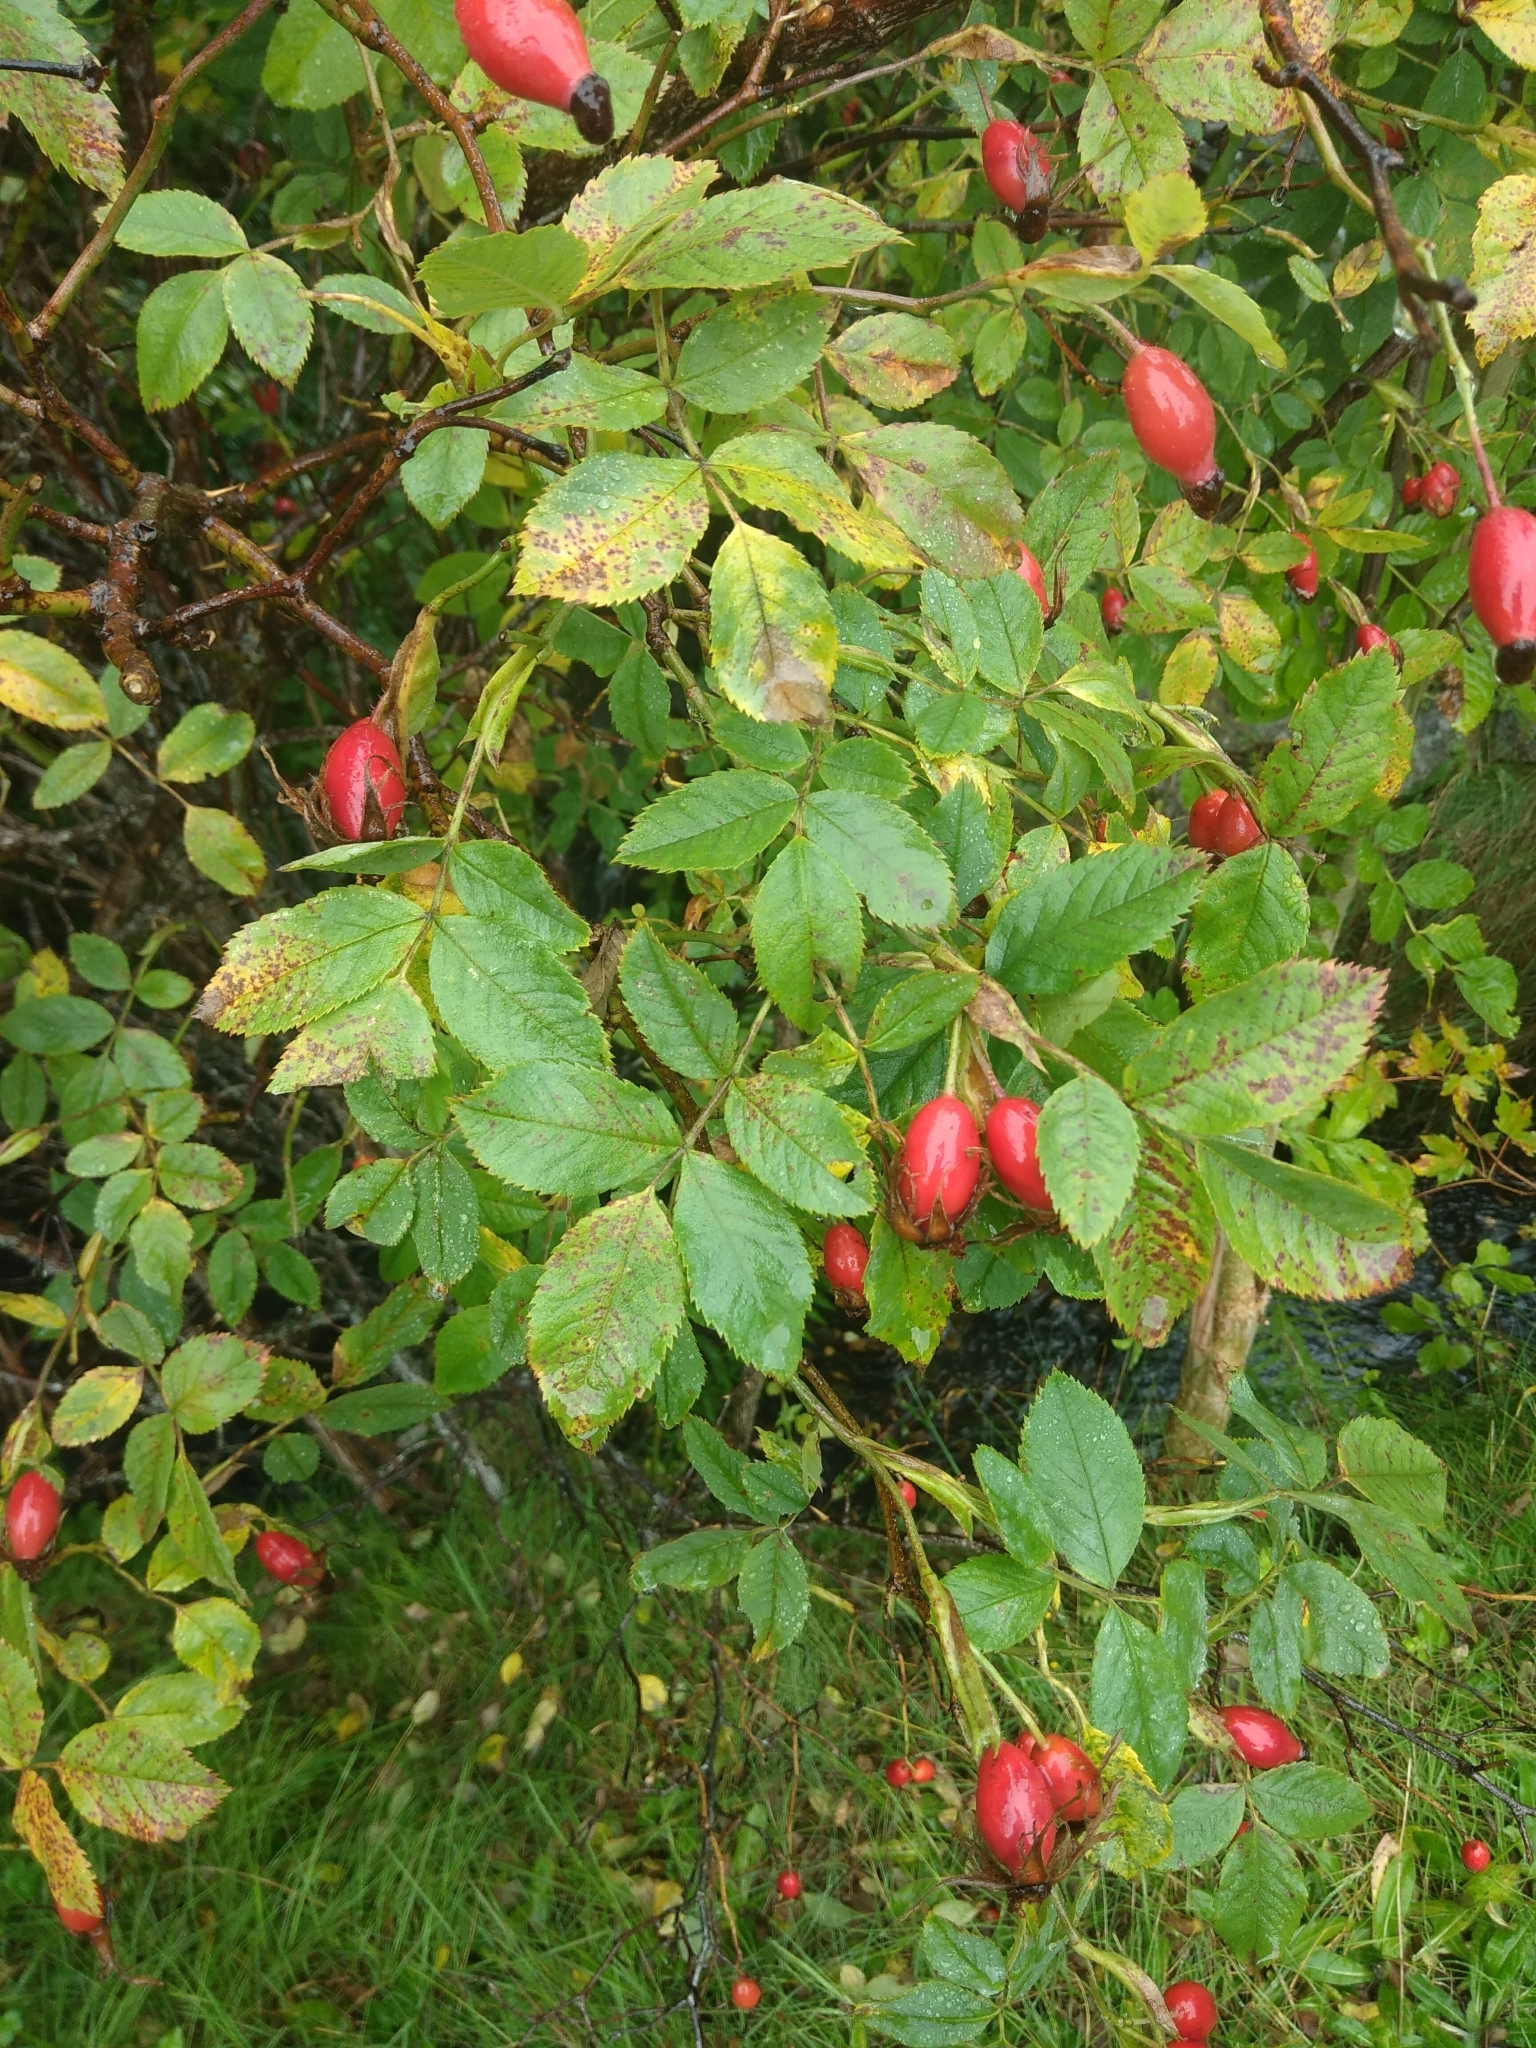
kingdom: Plantae
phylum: Tracheophyta
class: Magnoliopsida
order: Rosales
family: Rosaceae
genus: Rosa
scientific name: Rosa canina
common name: Dog rose
